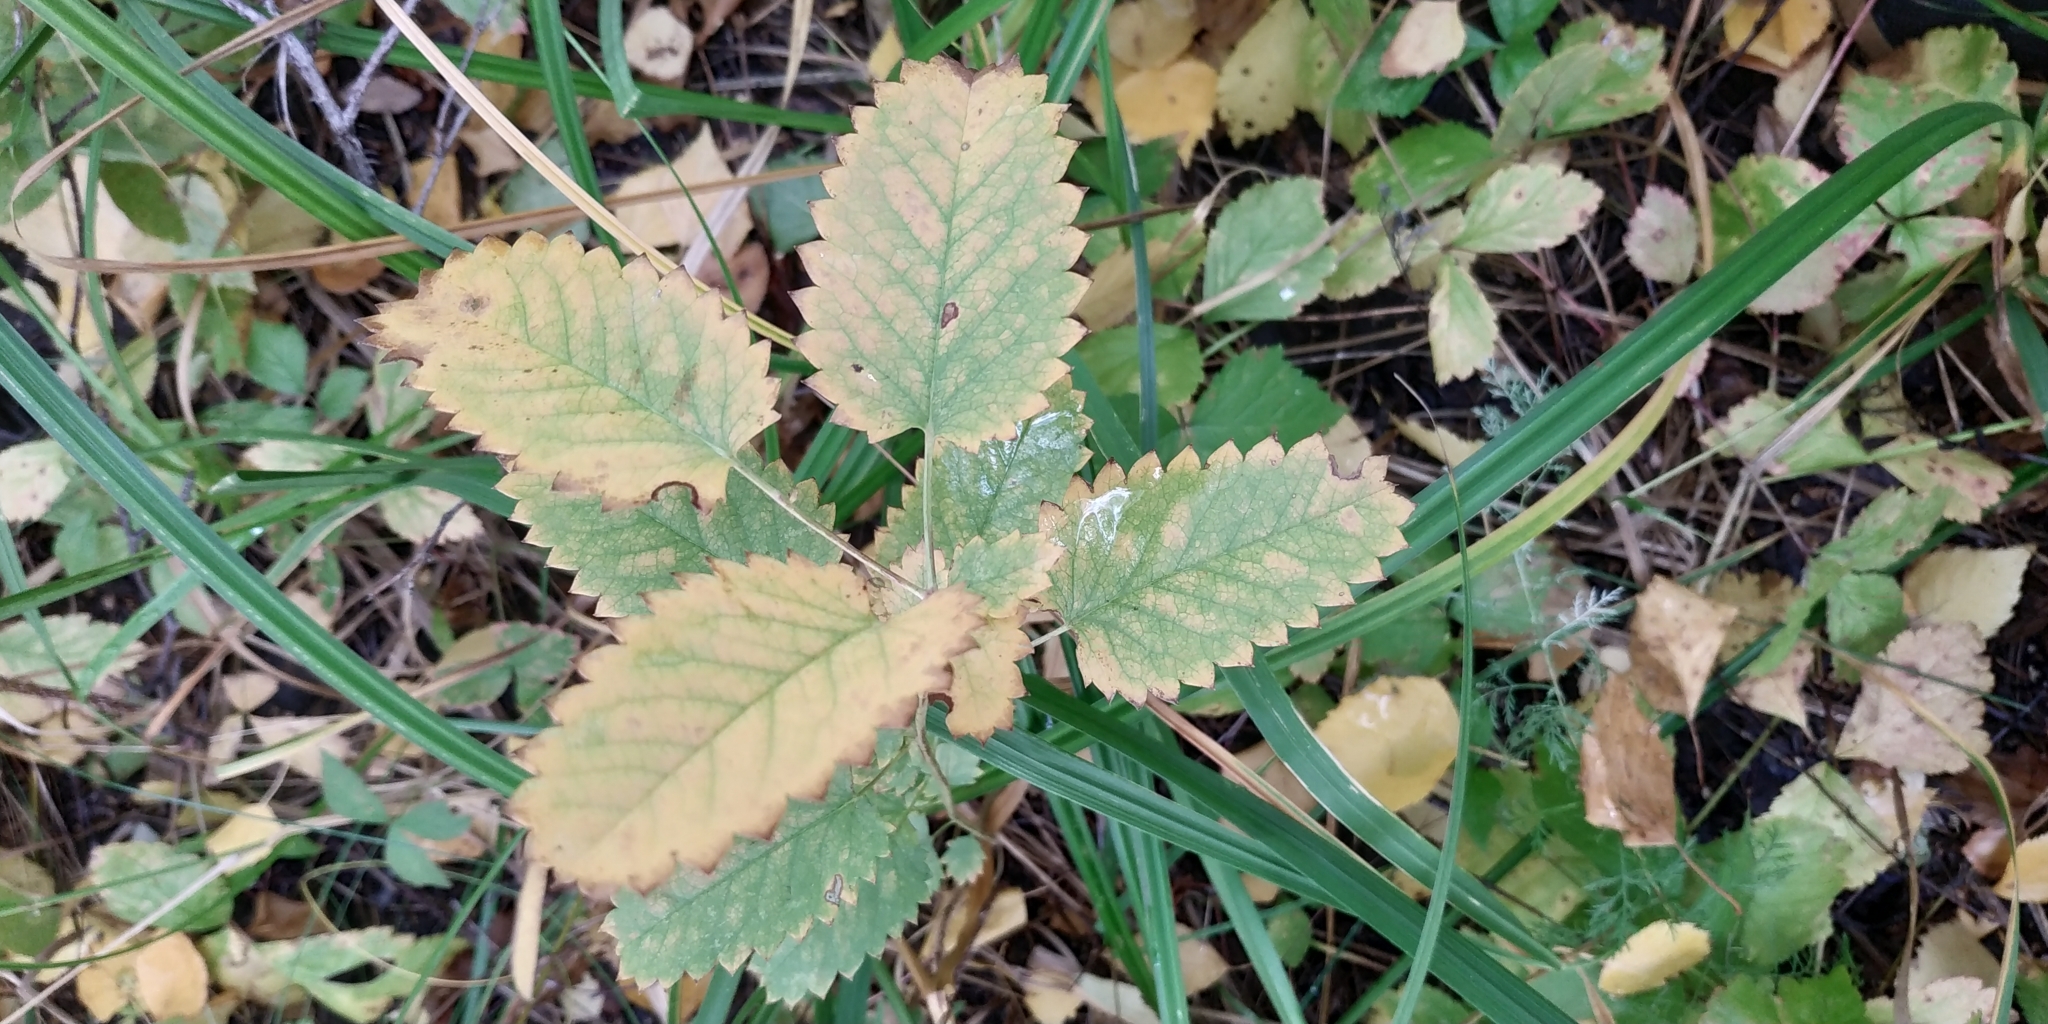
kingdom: Plantae
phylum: Tracheophyta
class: Magnoliopsida
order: Rosales
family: Rosaceae
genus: Sanguisorba
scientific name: Sanguisorba officinalis
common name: Great burnet
